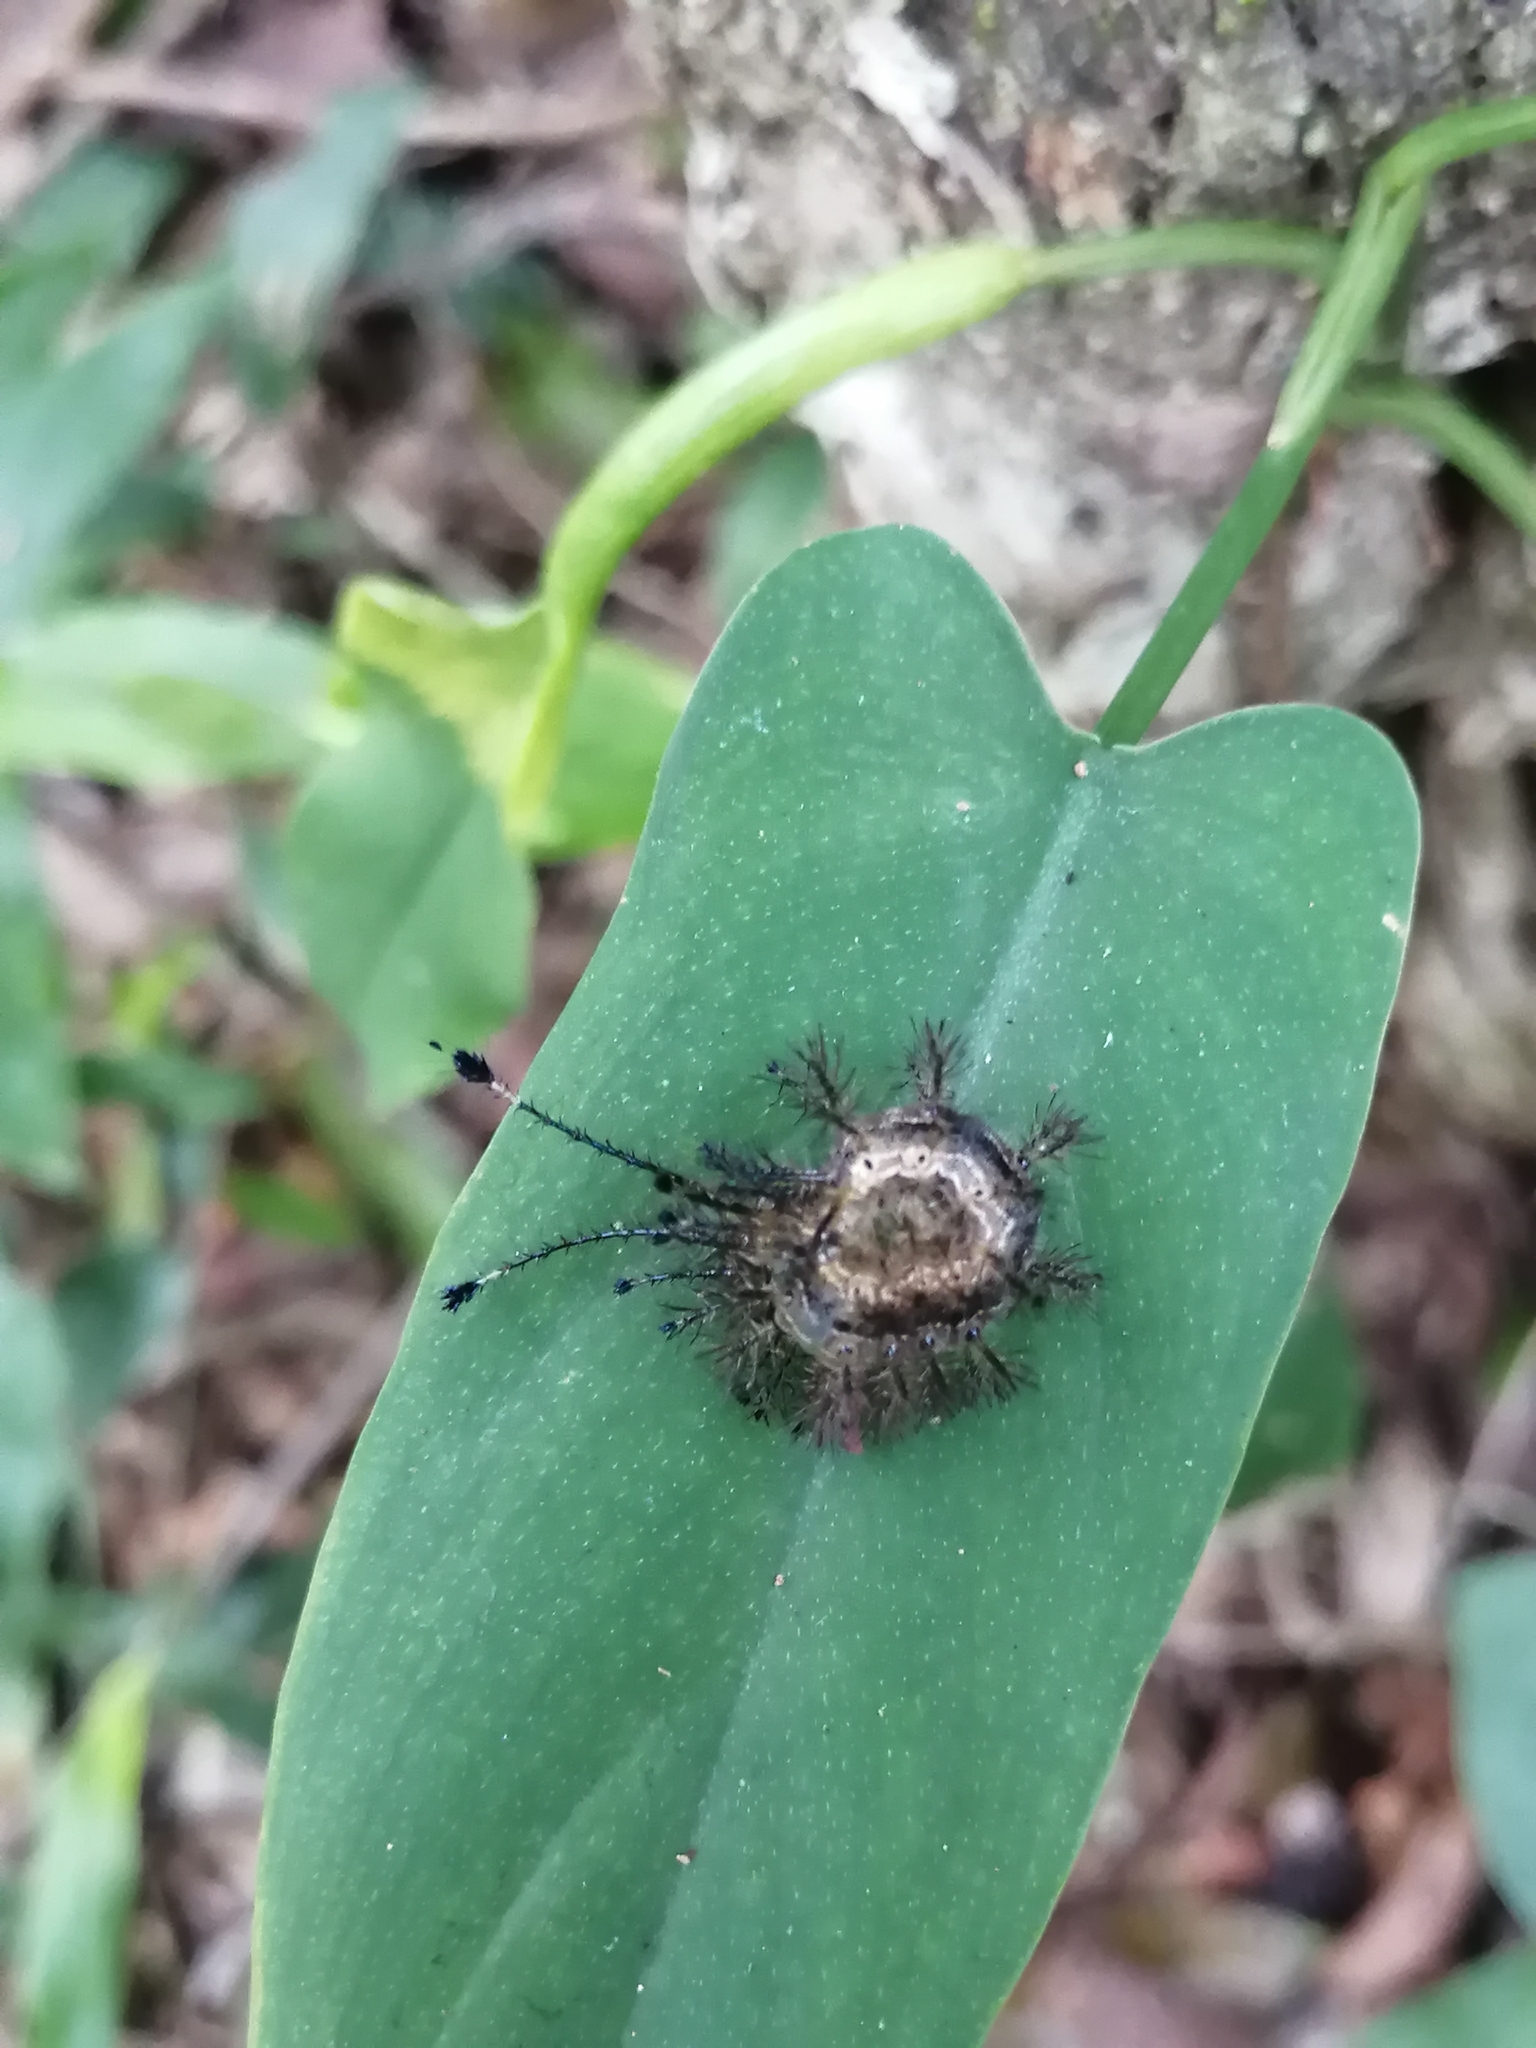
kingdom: Animalia
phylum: Arthropoda
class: Insecta
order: Lepidoptera
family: Saturniidae
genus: Hylesia
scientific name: Hylesia continua
